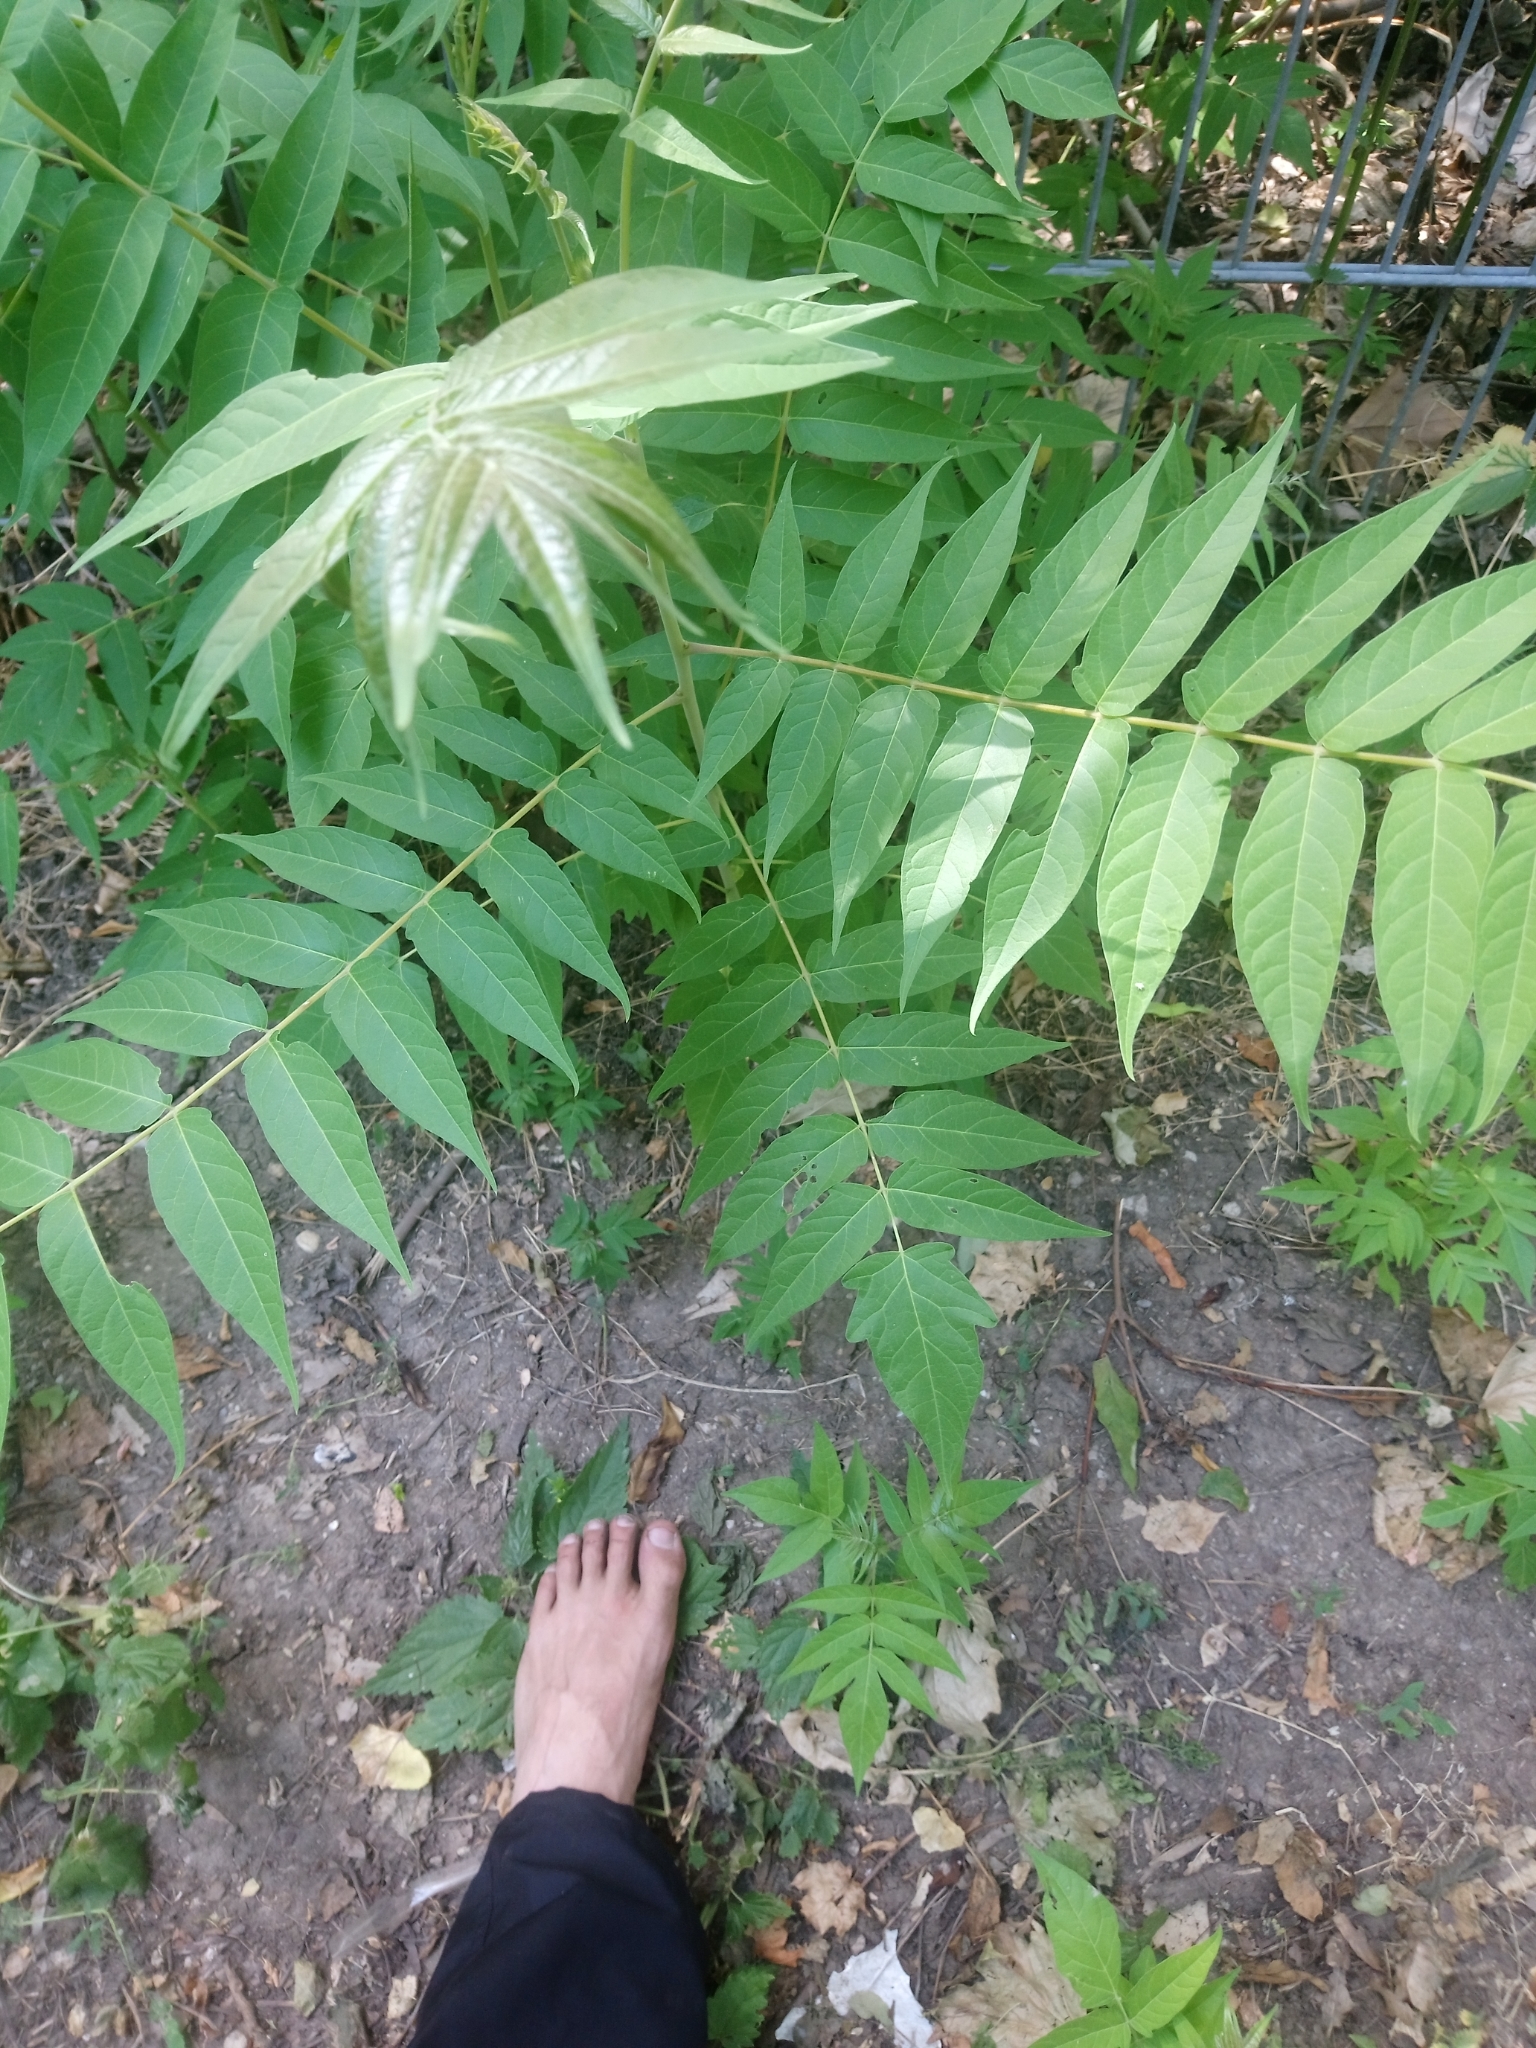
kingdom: Plantae
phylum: Tracheophyta
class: Magnoliopsida
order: Sapindales
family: Simaroubaceae
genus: Ailanthus
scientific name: Ailanthus altissima
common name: Tree-of-heaven
